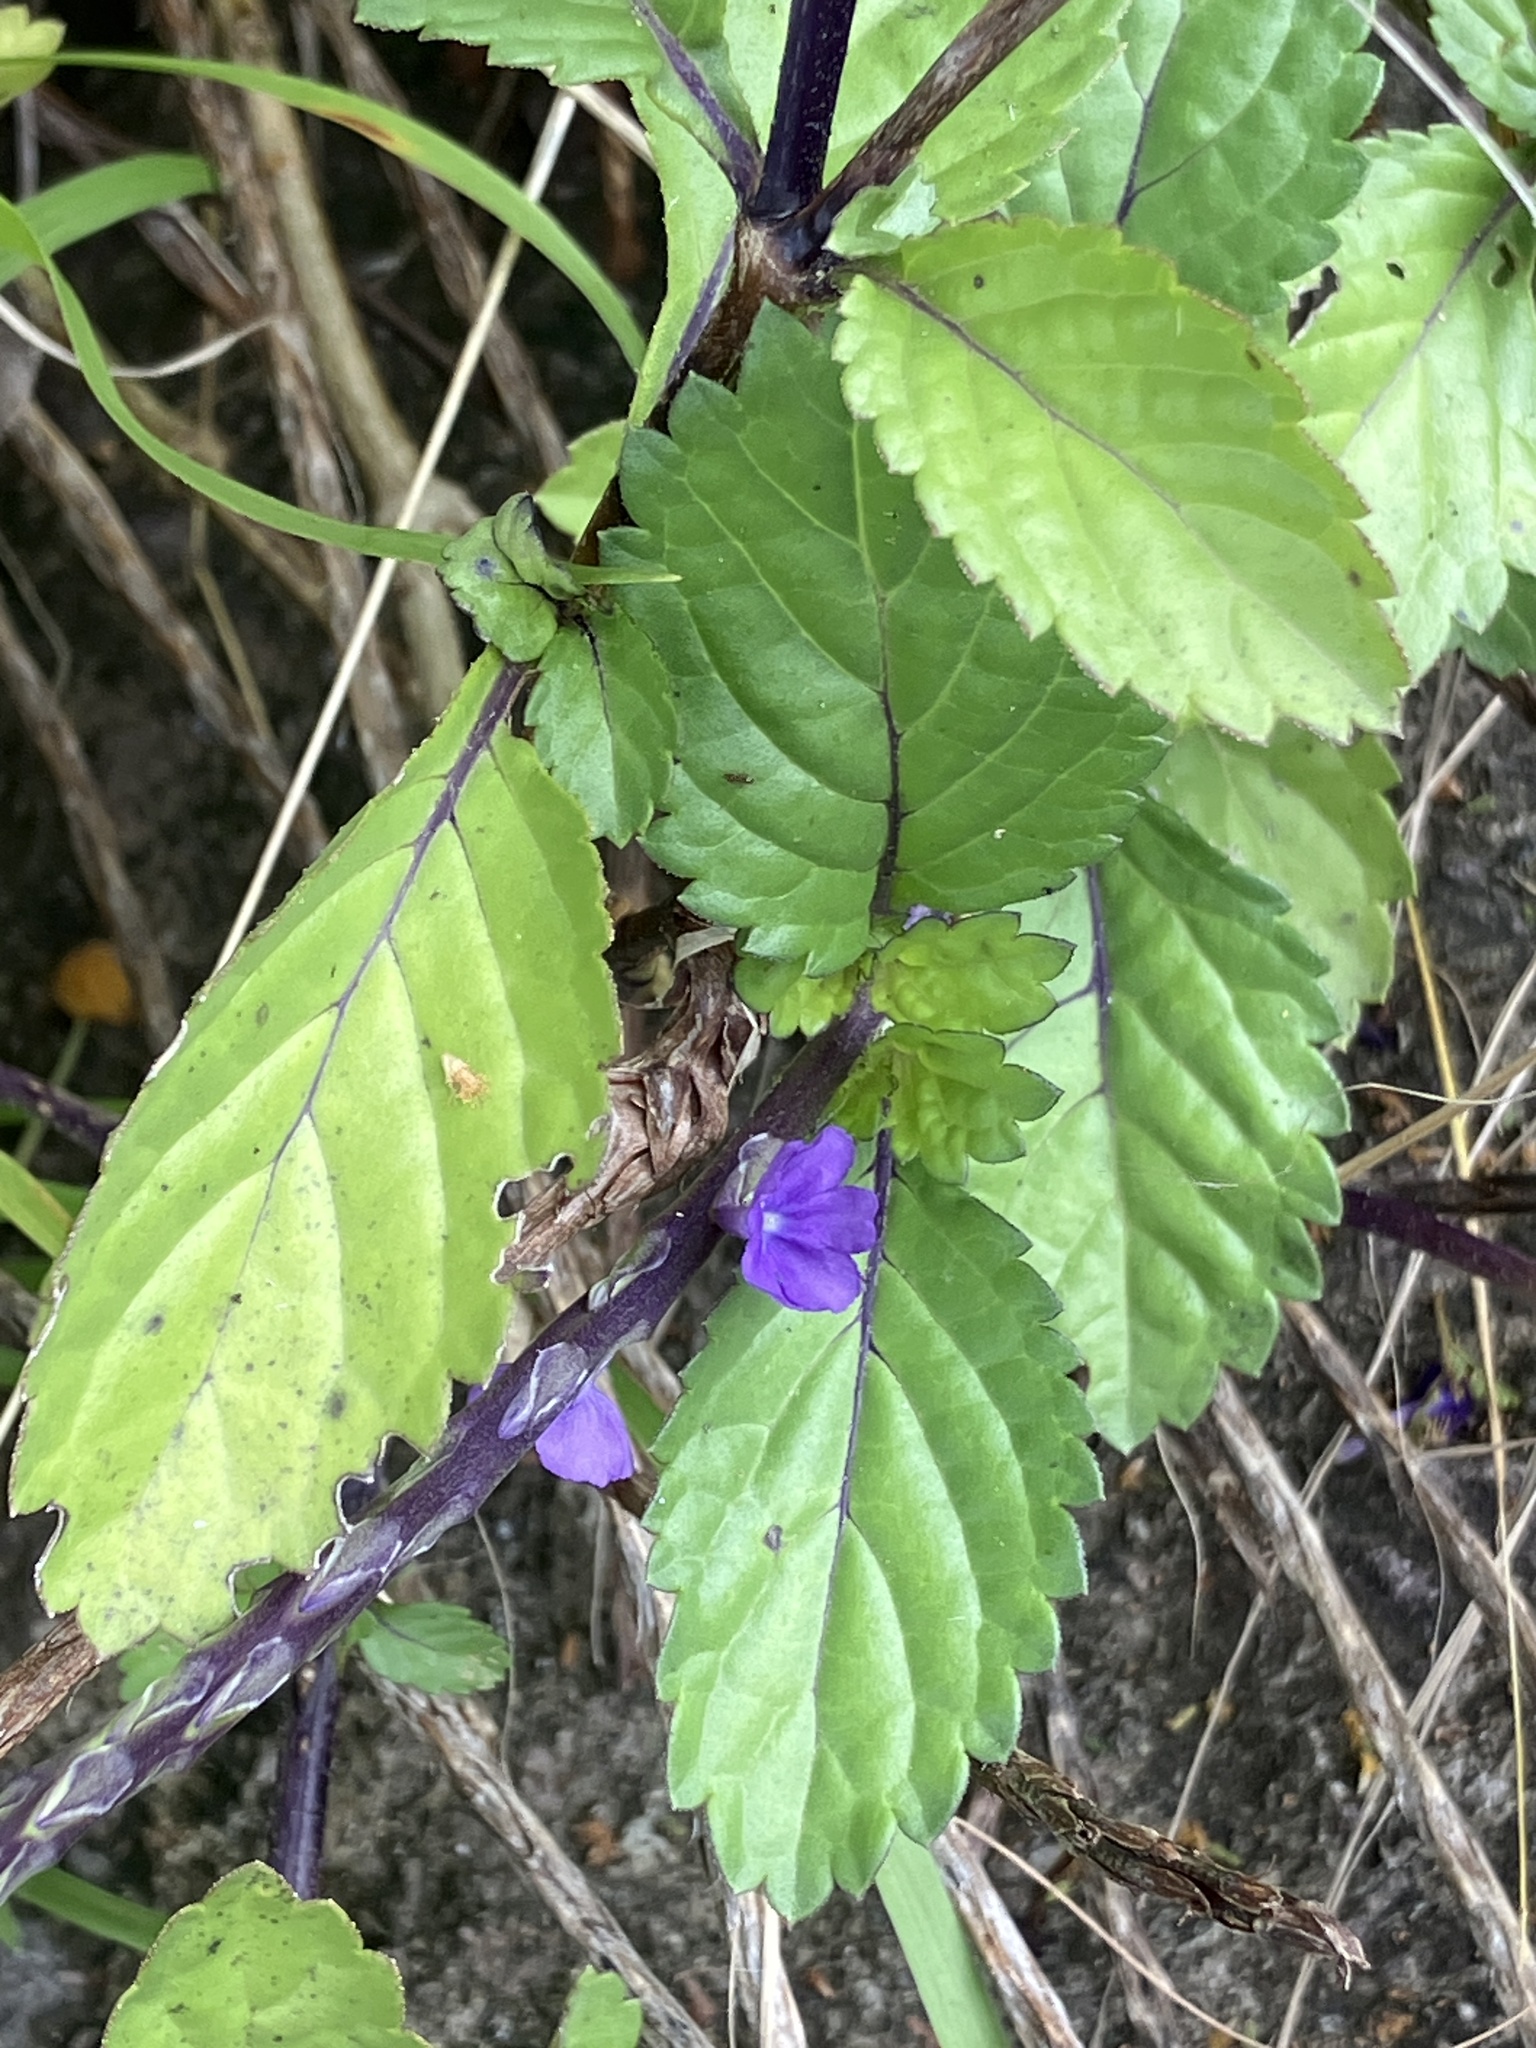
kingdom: Plantae
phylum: Tracheophyta
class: Magnoliopsida
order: Lamiales
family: Verbenaceae
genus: Stachytarpheta
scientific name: Stachytarpheta jamaicensis
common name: Light-blue snakeweed
